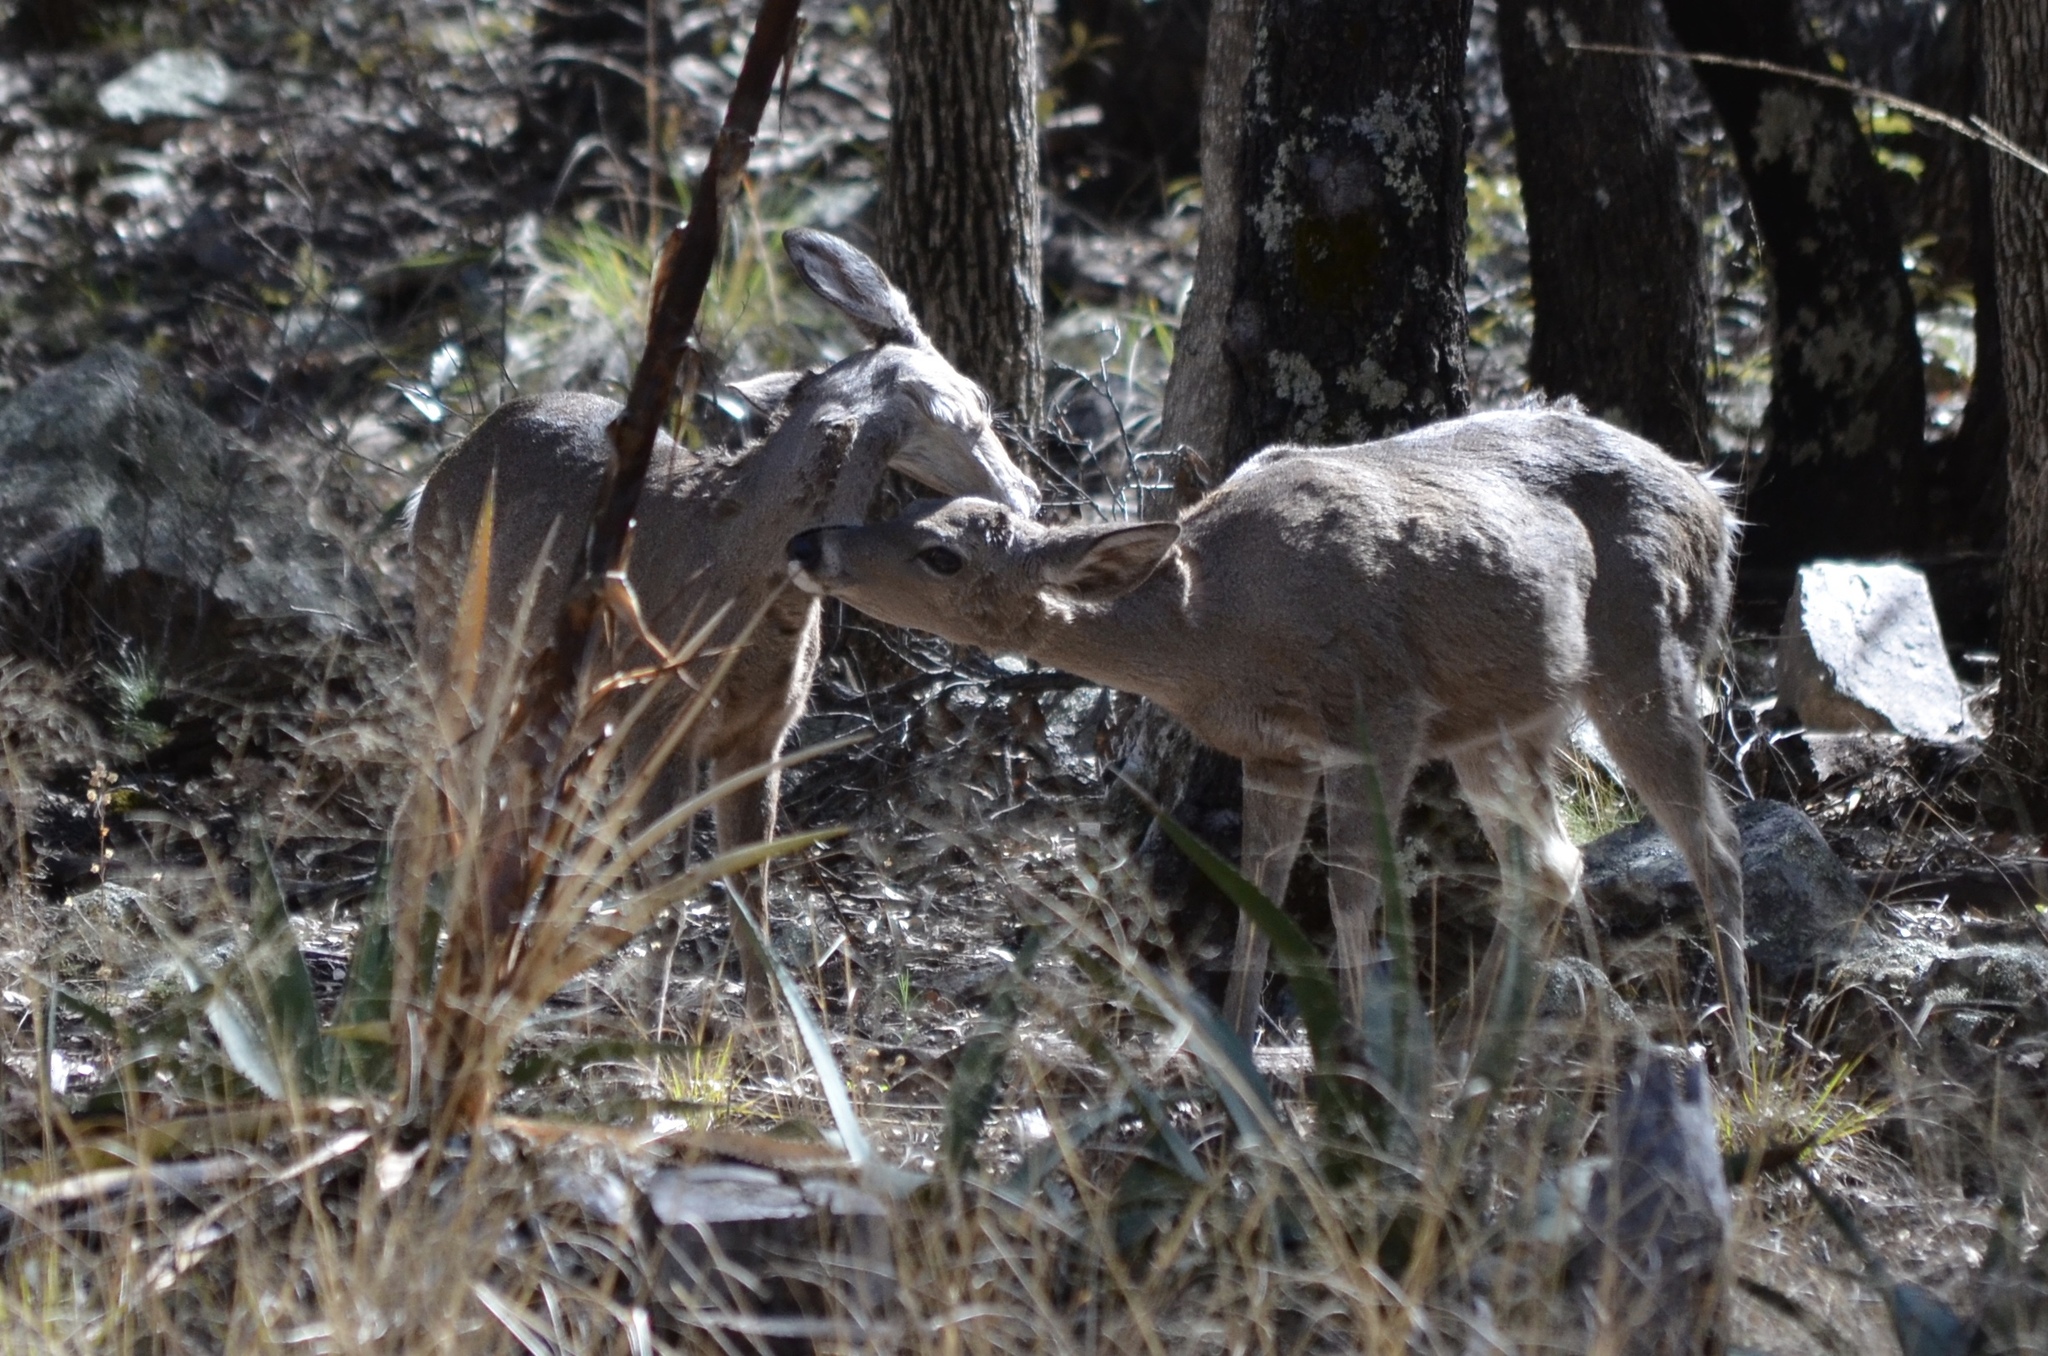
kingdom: Animalia
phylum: Chordata
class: Mammalia
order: Artiodactyla
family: Cervidae
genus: Odocoileus
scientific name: Odocoileus virginianus
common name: White-tailed deer
